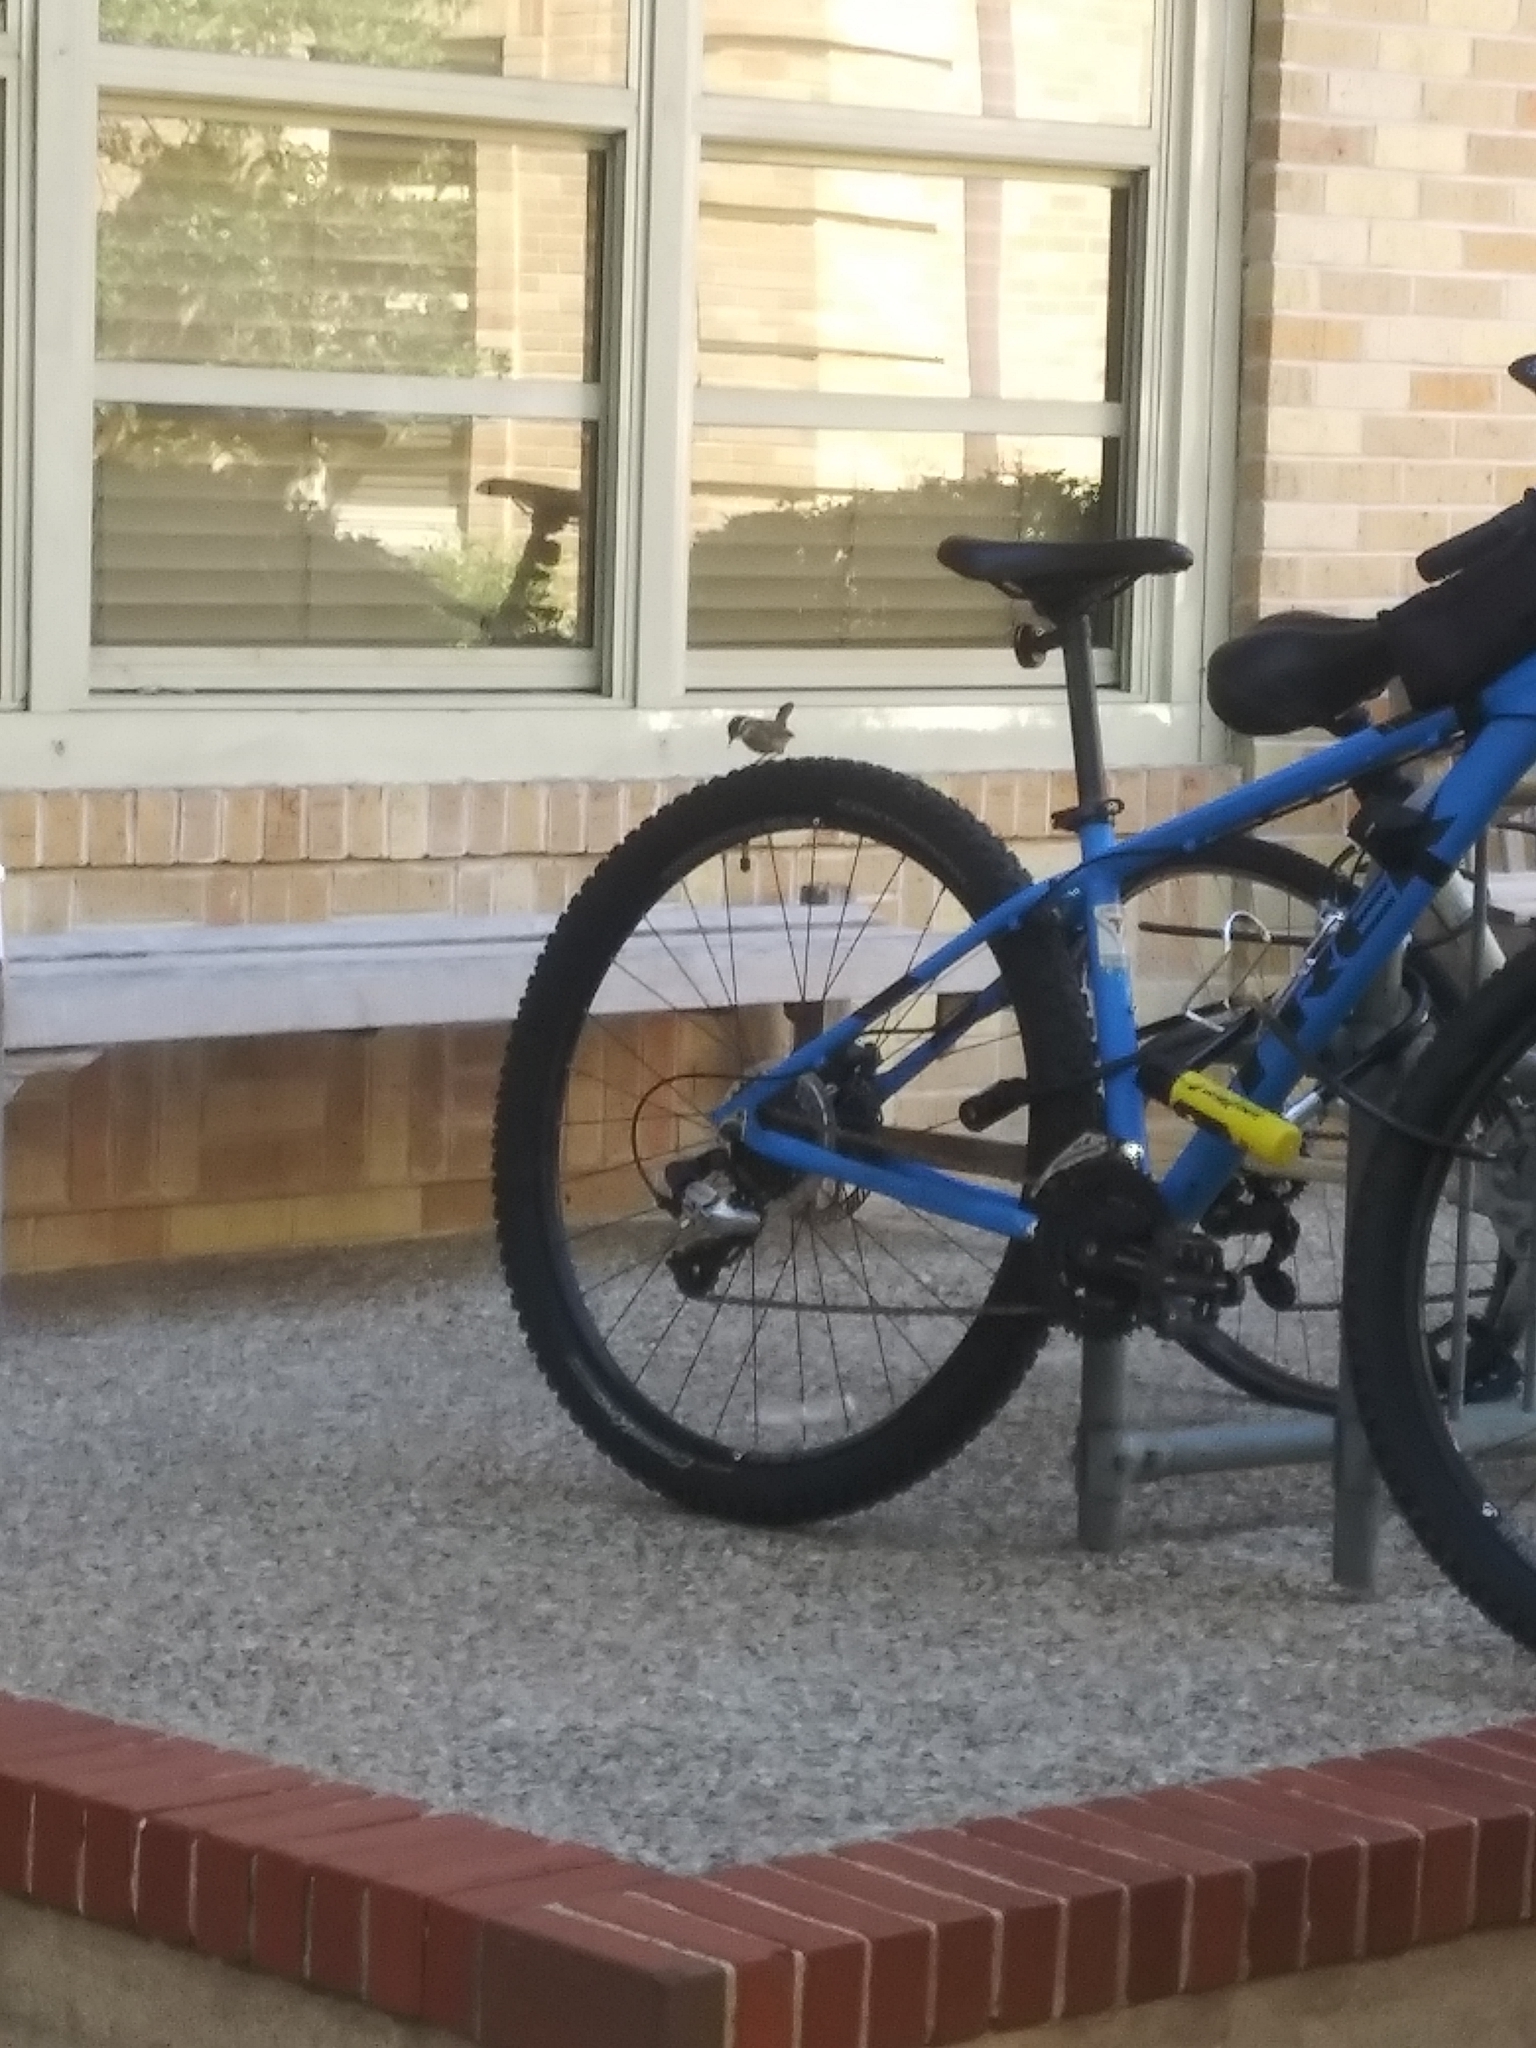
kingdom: Animalia
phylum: Chordata
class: Aves
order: Passeriformes
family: Troglodytidae
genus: Thryothorus
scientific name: Thryothorus ludovicianus
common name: Carolina wren
